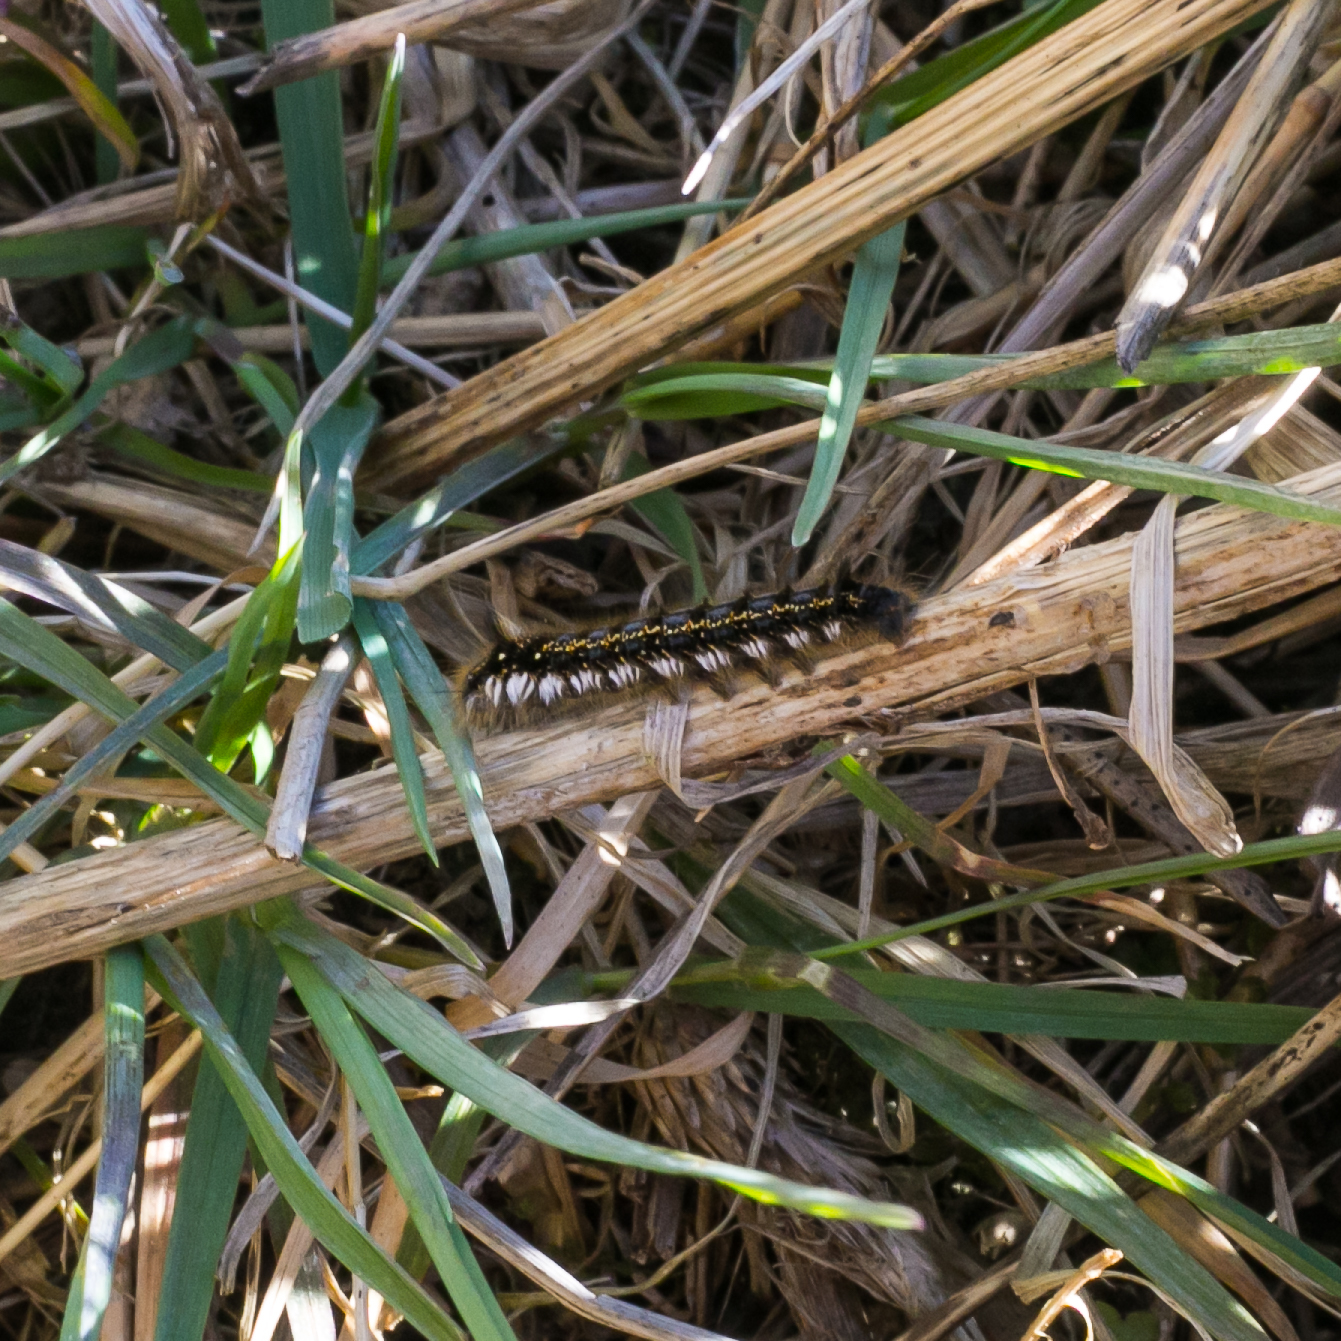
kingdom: Animalia
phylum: Arthropoda
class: Insecta
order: Lepidoptera
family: Lasiocampidae
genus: Euthrix
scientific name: Euthrix potatoria
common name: Drinker
